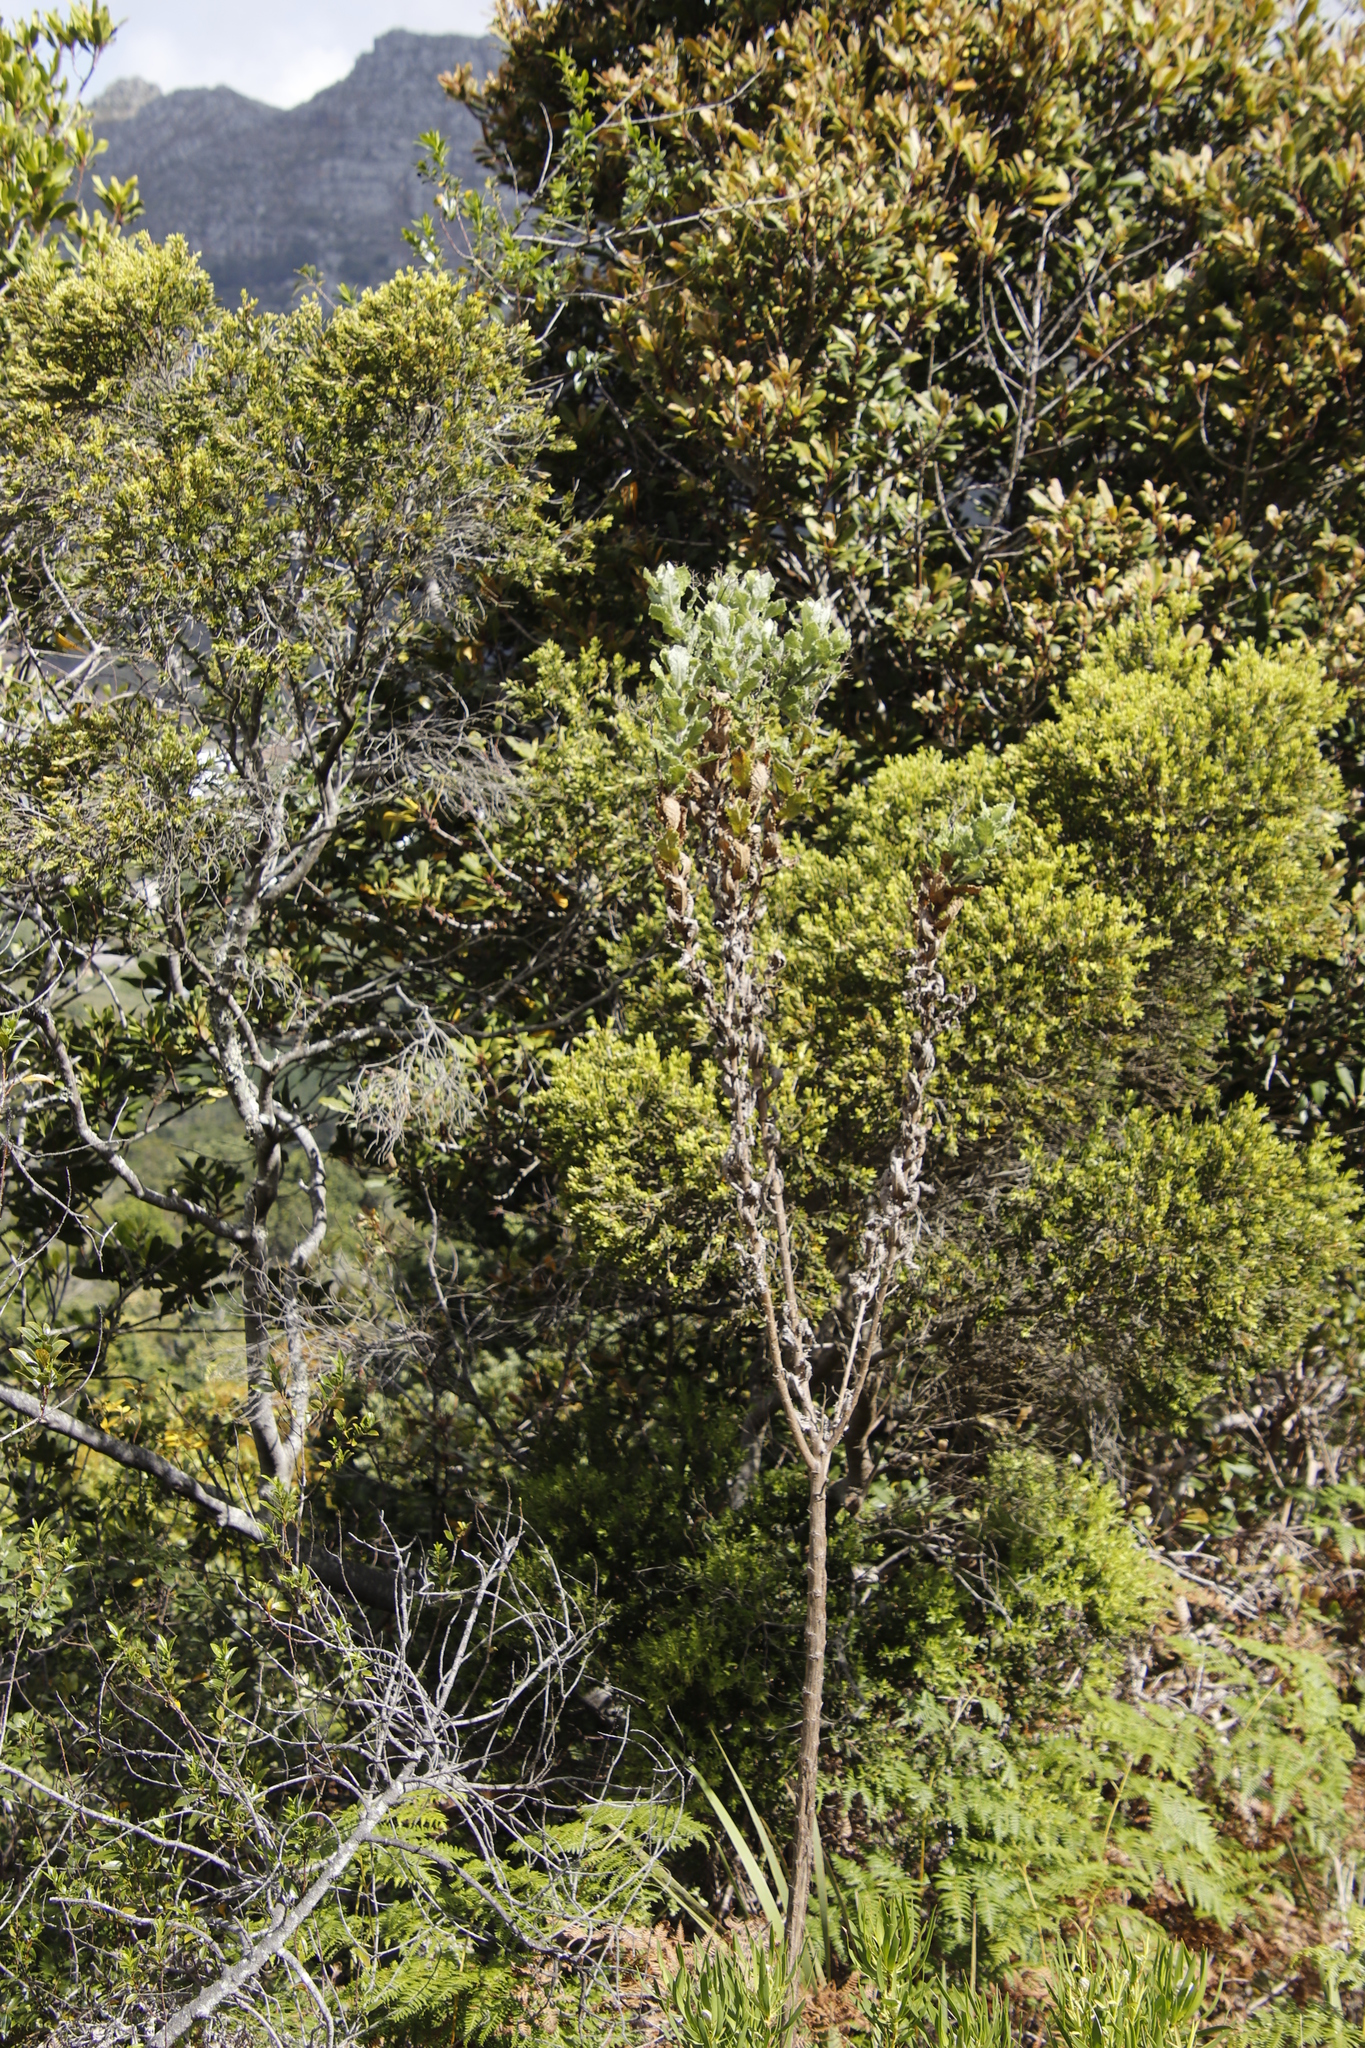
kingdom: Plantae
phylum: Tracheophyta
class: Magnoliopsida
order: Asterales
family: Asteraceae
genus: Senecio
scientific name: Senecio rigidus
